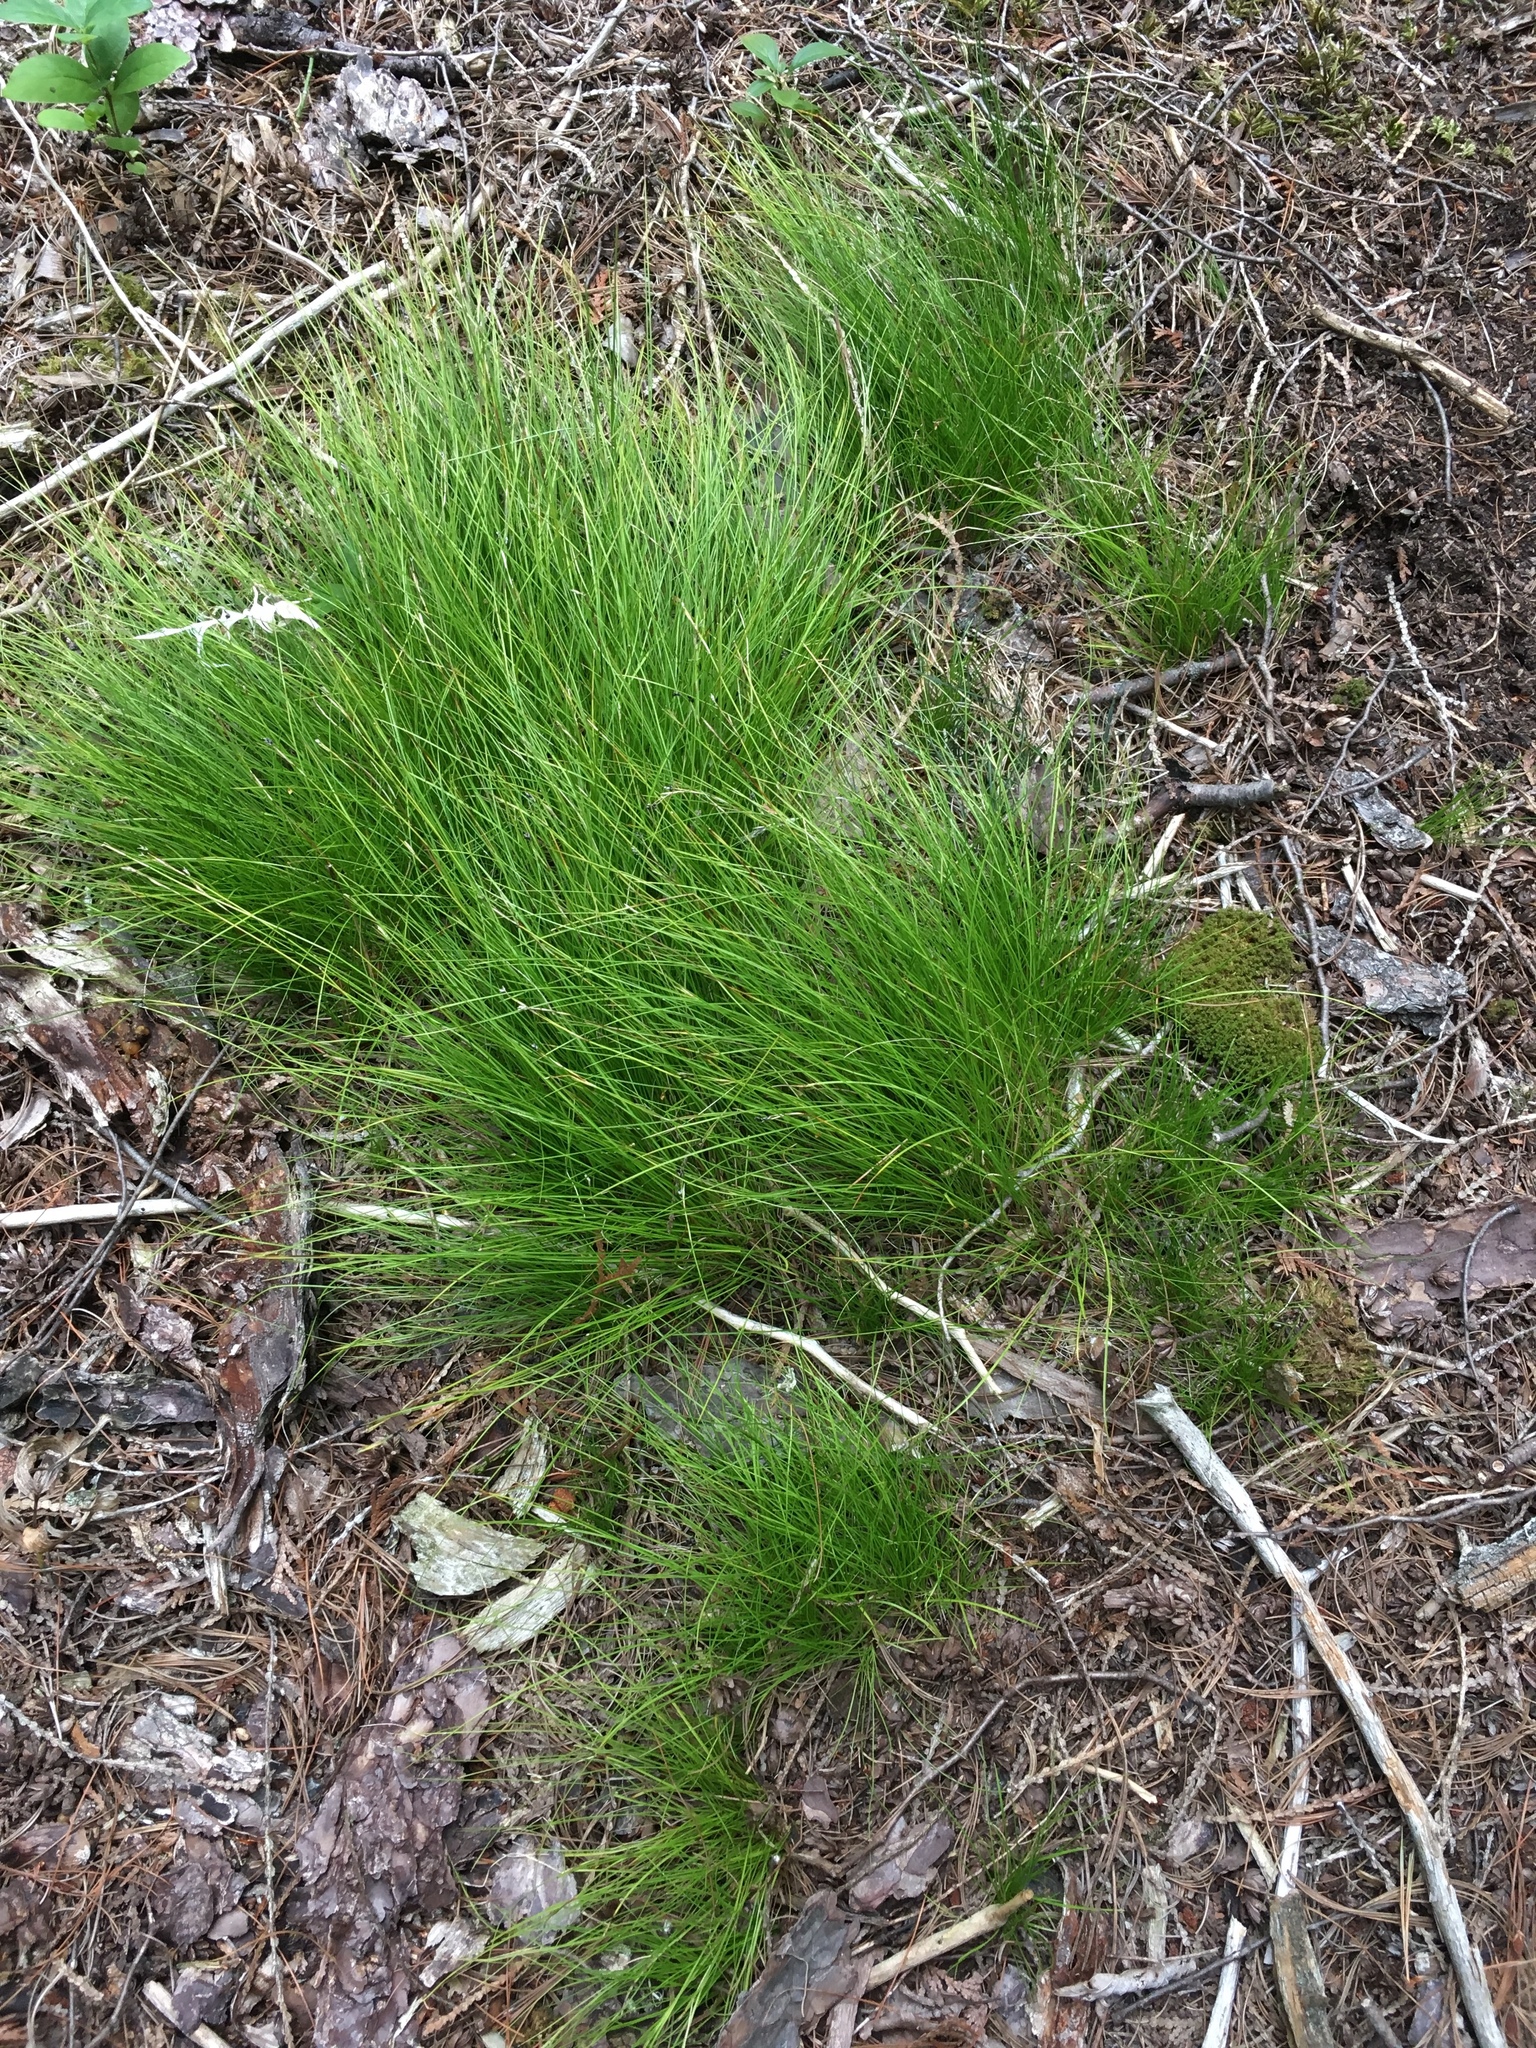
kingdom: Plantae
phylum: Tracheophyta
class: Liliopsida
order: Poales
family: Cyperaceae
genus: Carex
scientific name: Carex eburnea
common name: Bristle-leaved sedge
